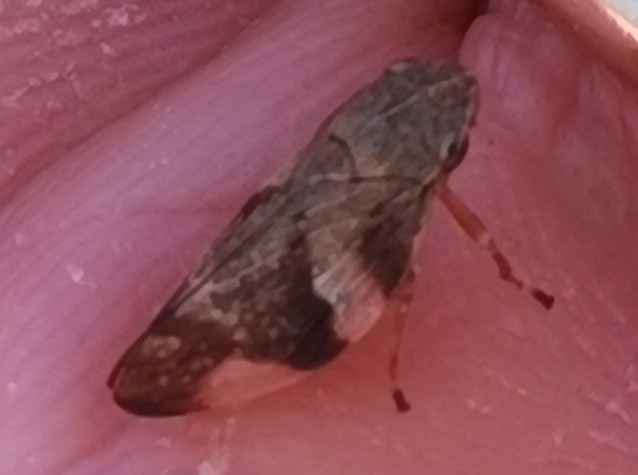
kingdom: Animalia
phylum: Arthropoda
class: Insecta
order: Hemiptera
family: Aphrophoridae
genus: Aphrophora
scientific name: Aphrophora alni
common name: European alder spittlebug
